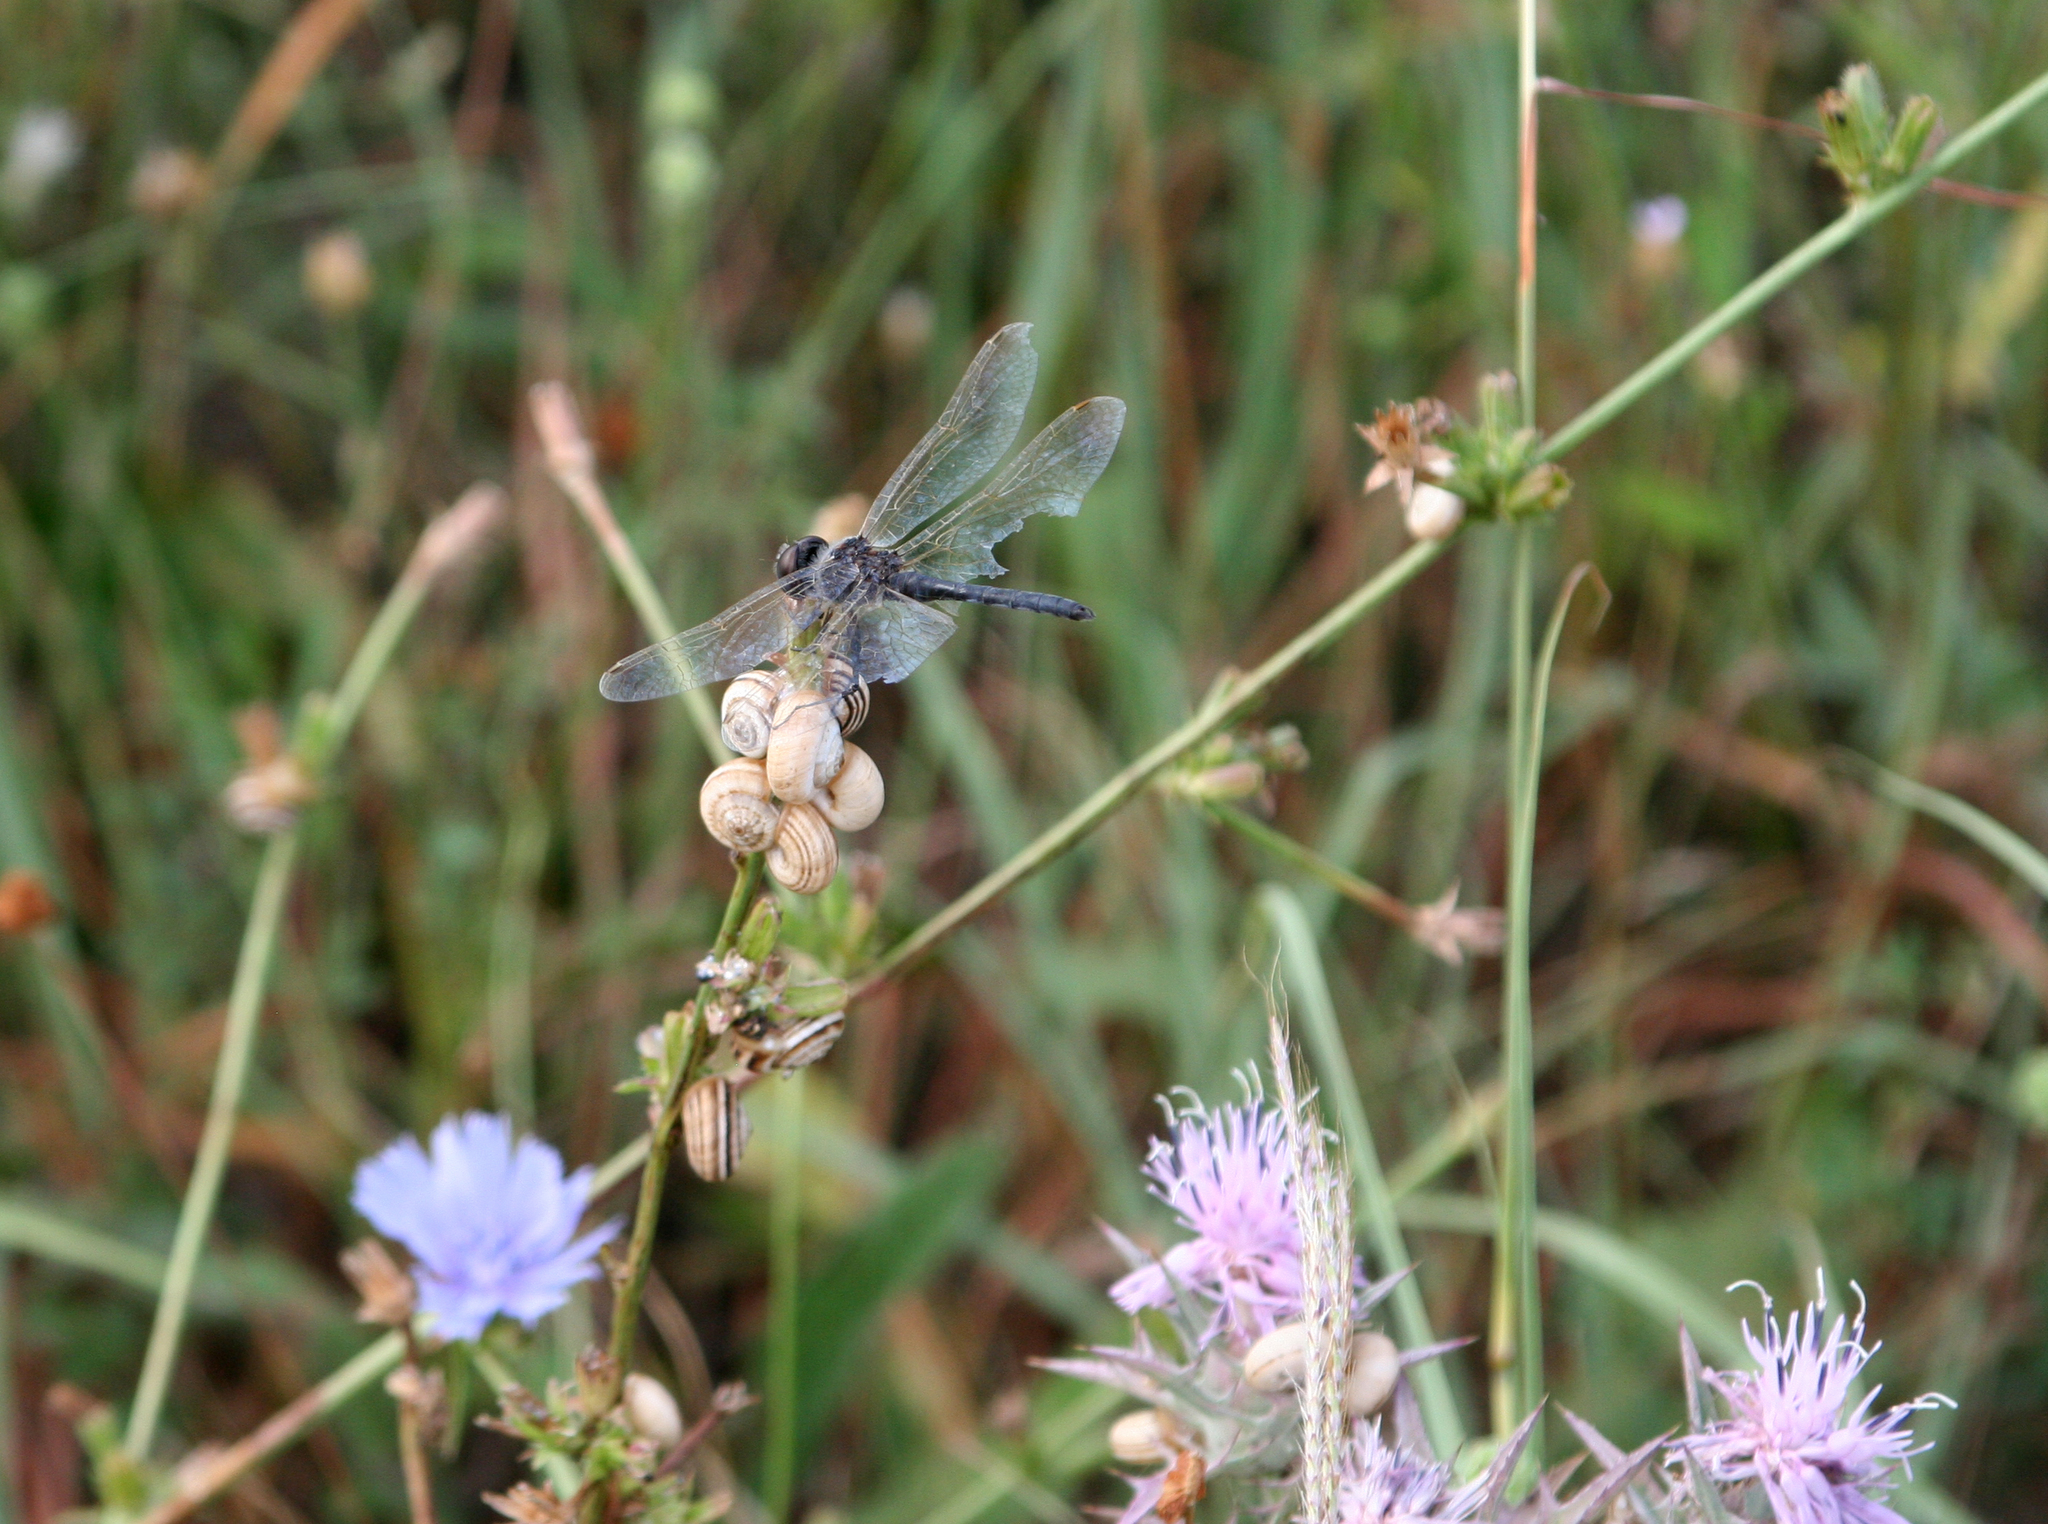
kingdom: Plantae
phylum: Tracheophyta
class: Magnoliopsida
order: Asterales
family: Asteraceae
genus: Cichorium
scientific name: Cichorium intybus
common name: Chicory
